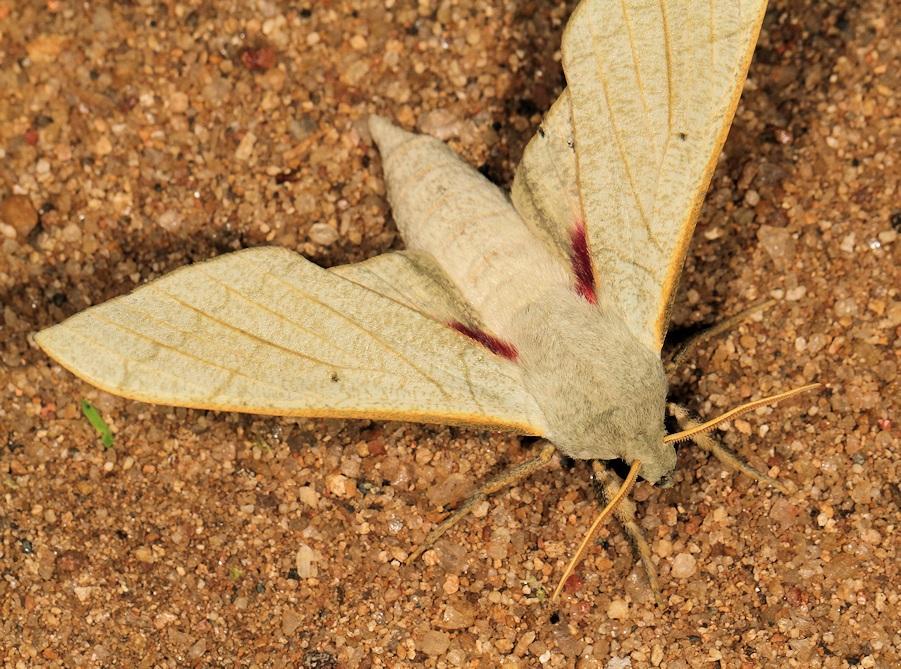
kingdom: Animalia
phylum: Arthropoda
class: Insecta
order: Lepidoptera
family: Sphingidae
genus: Neoclanis
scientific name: Neoclanis basalis
